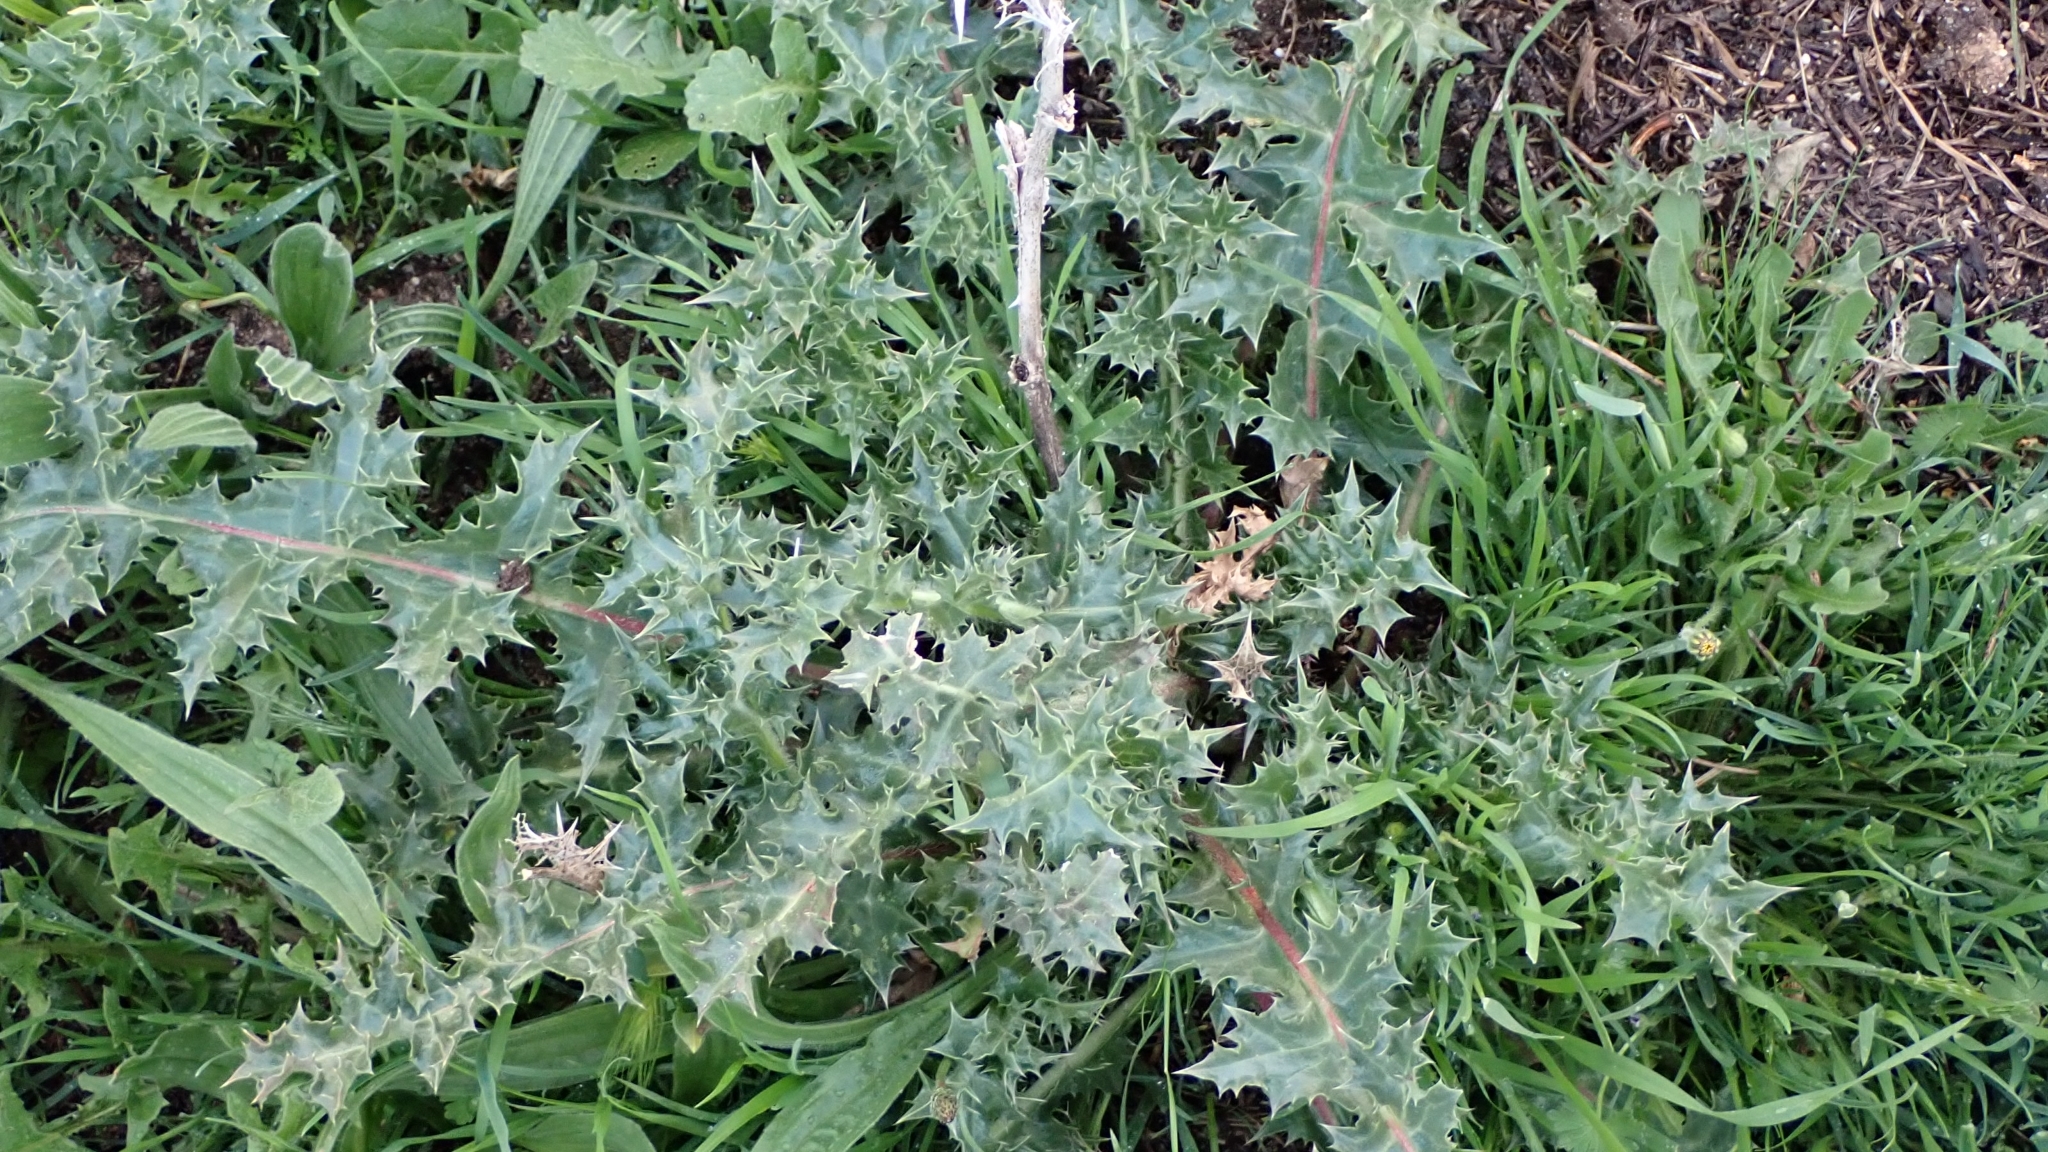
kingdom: Plantae
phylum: Tracheophyta
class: Magnoliopsida
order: Asterales
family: Asteraceae
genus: Scolymus
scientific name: Scolymus hispanicus
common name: Golden thistle
